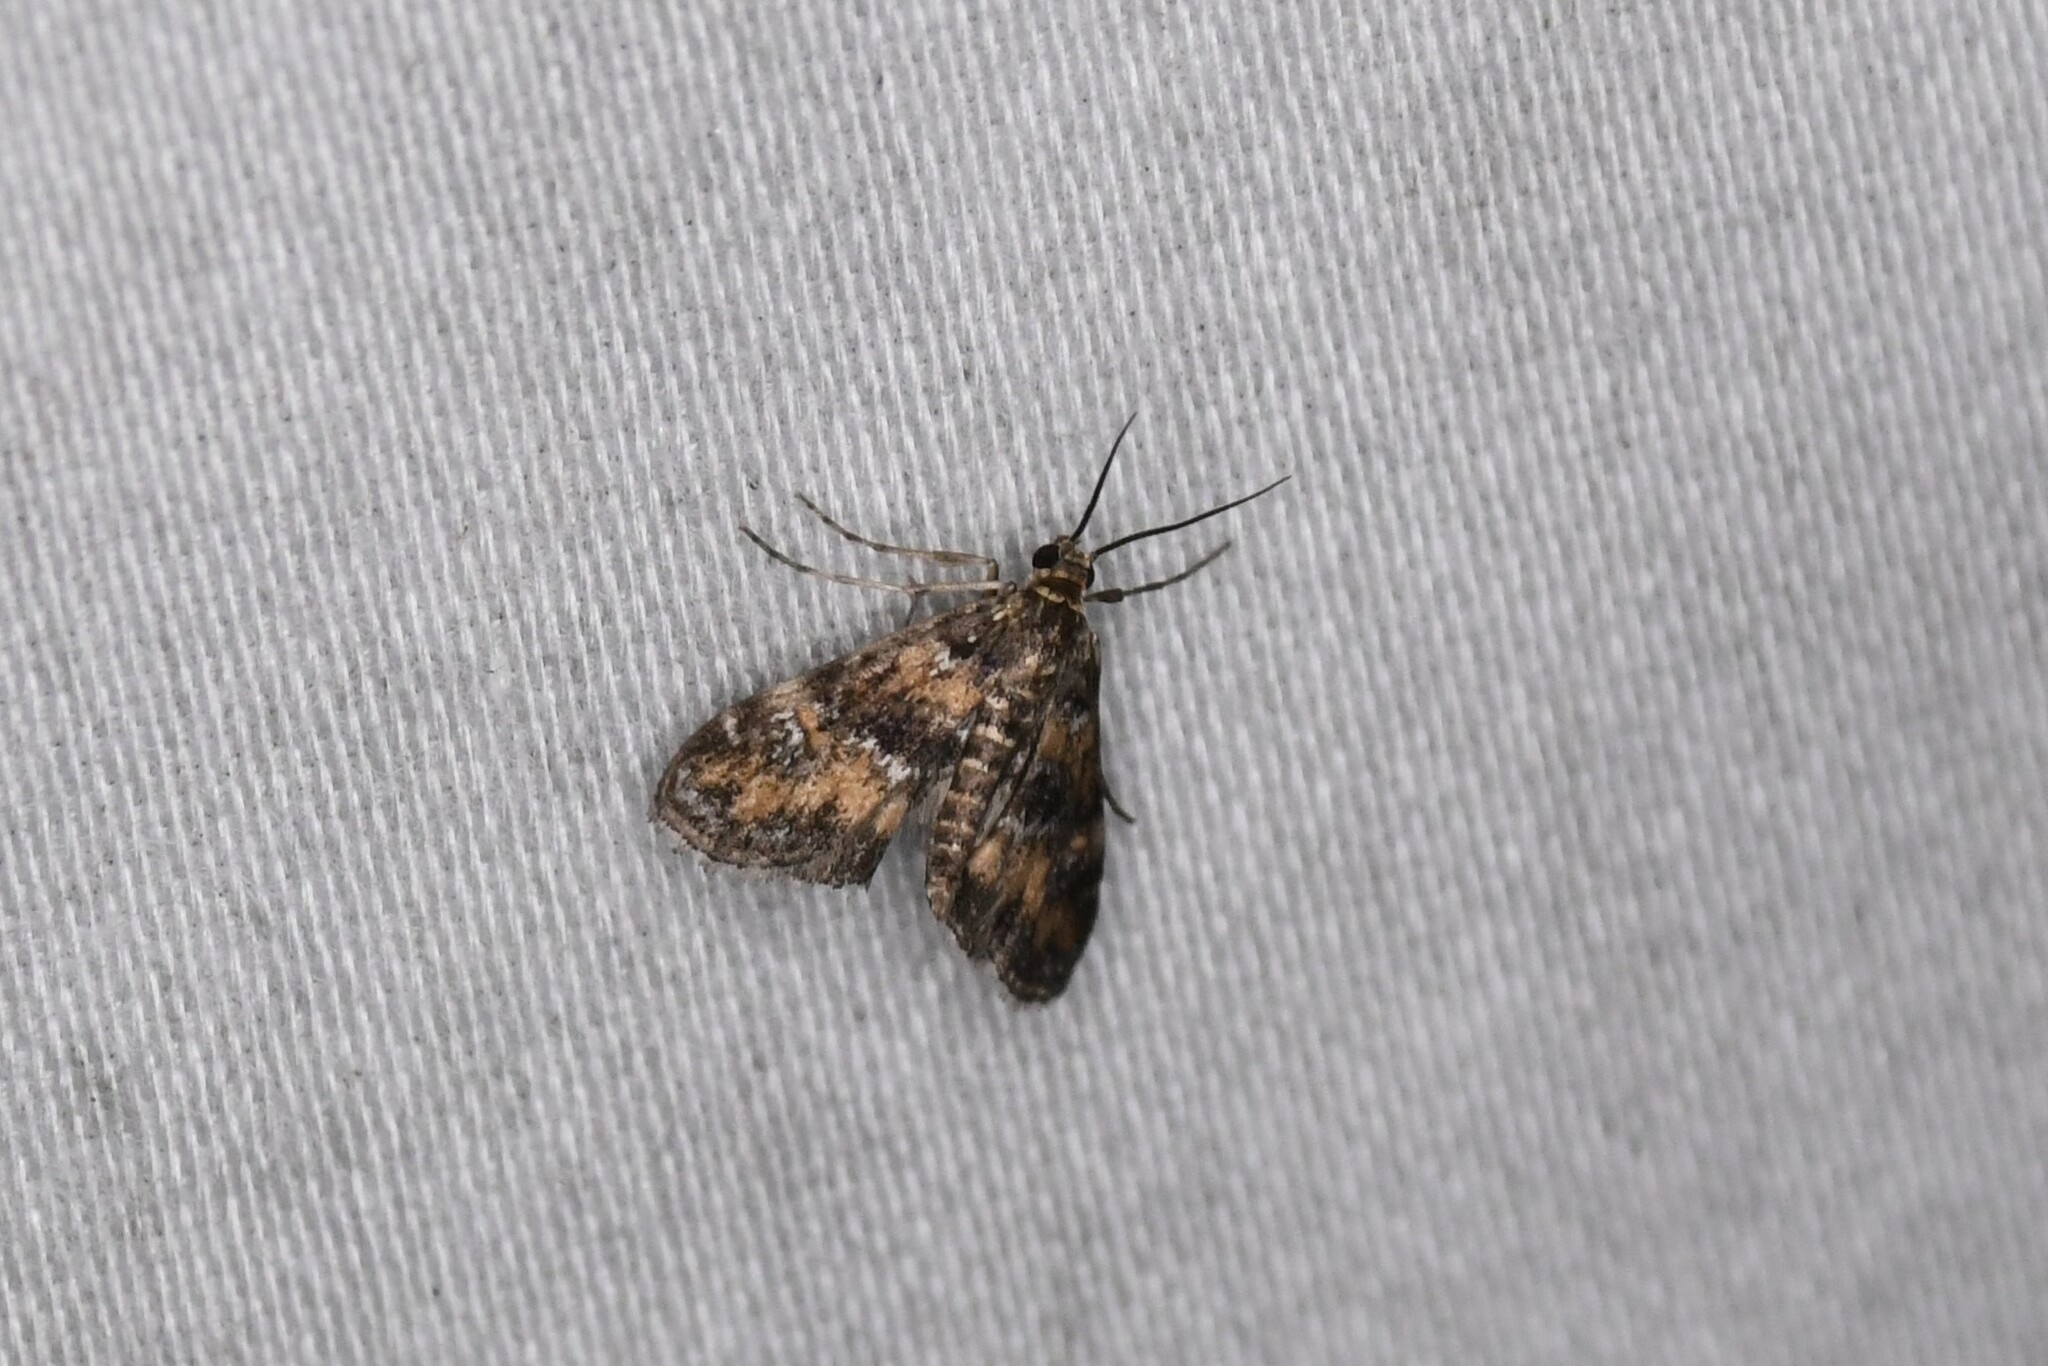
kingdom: Animalia
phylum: Arthropoda
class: Insecta
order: Lepidoptera
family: Crambidae
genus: Elophila
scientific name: Elophila obliteralis
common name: Waterlily leafcutter moth
